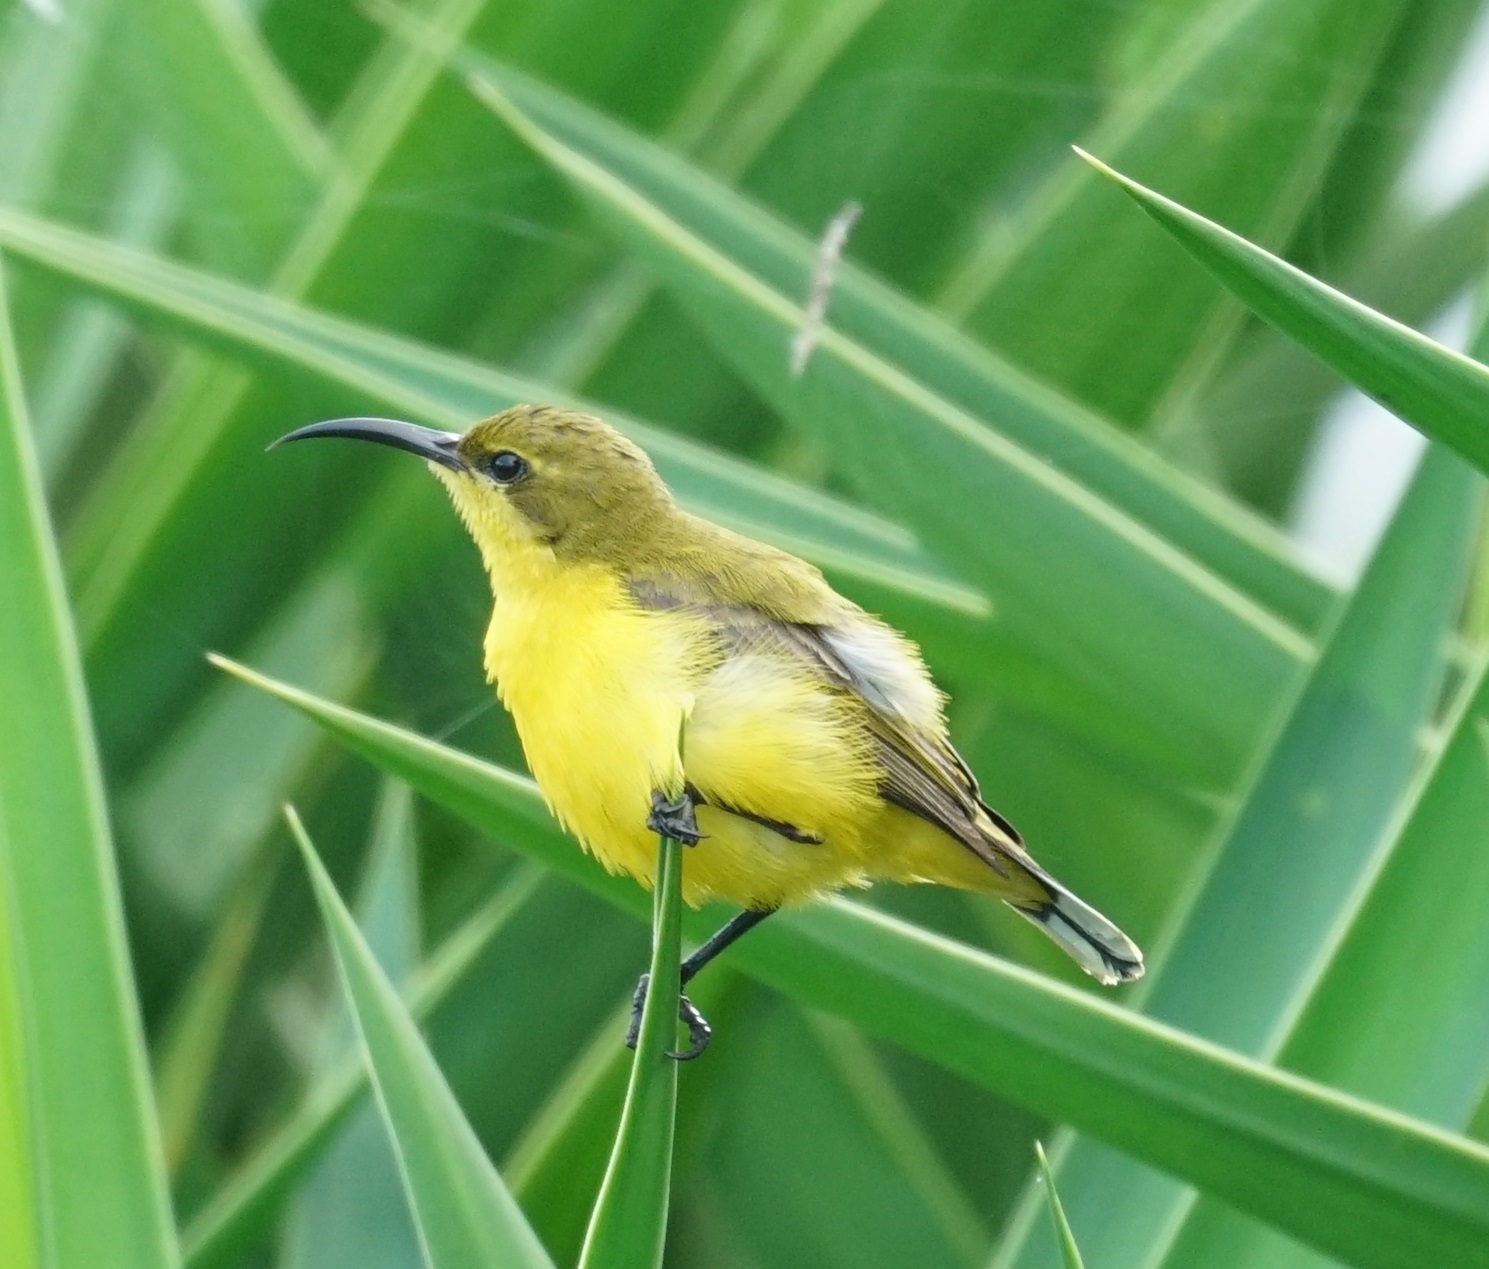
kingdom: Animalia
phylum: Chordata
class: Aves
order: Passeriformes
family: Nectariniidae
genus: Cinnyris
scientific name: Cinnyris
